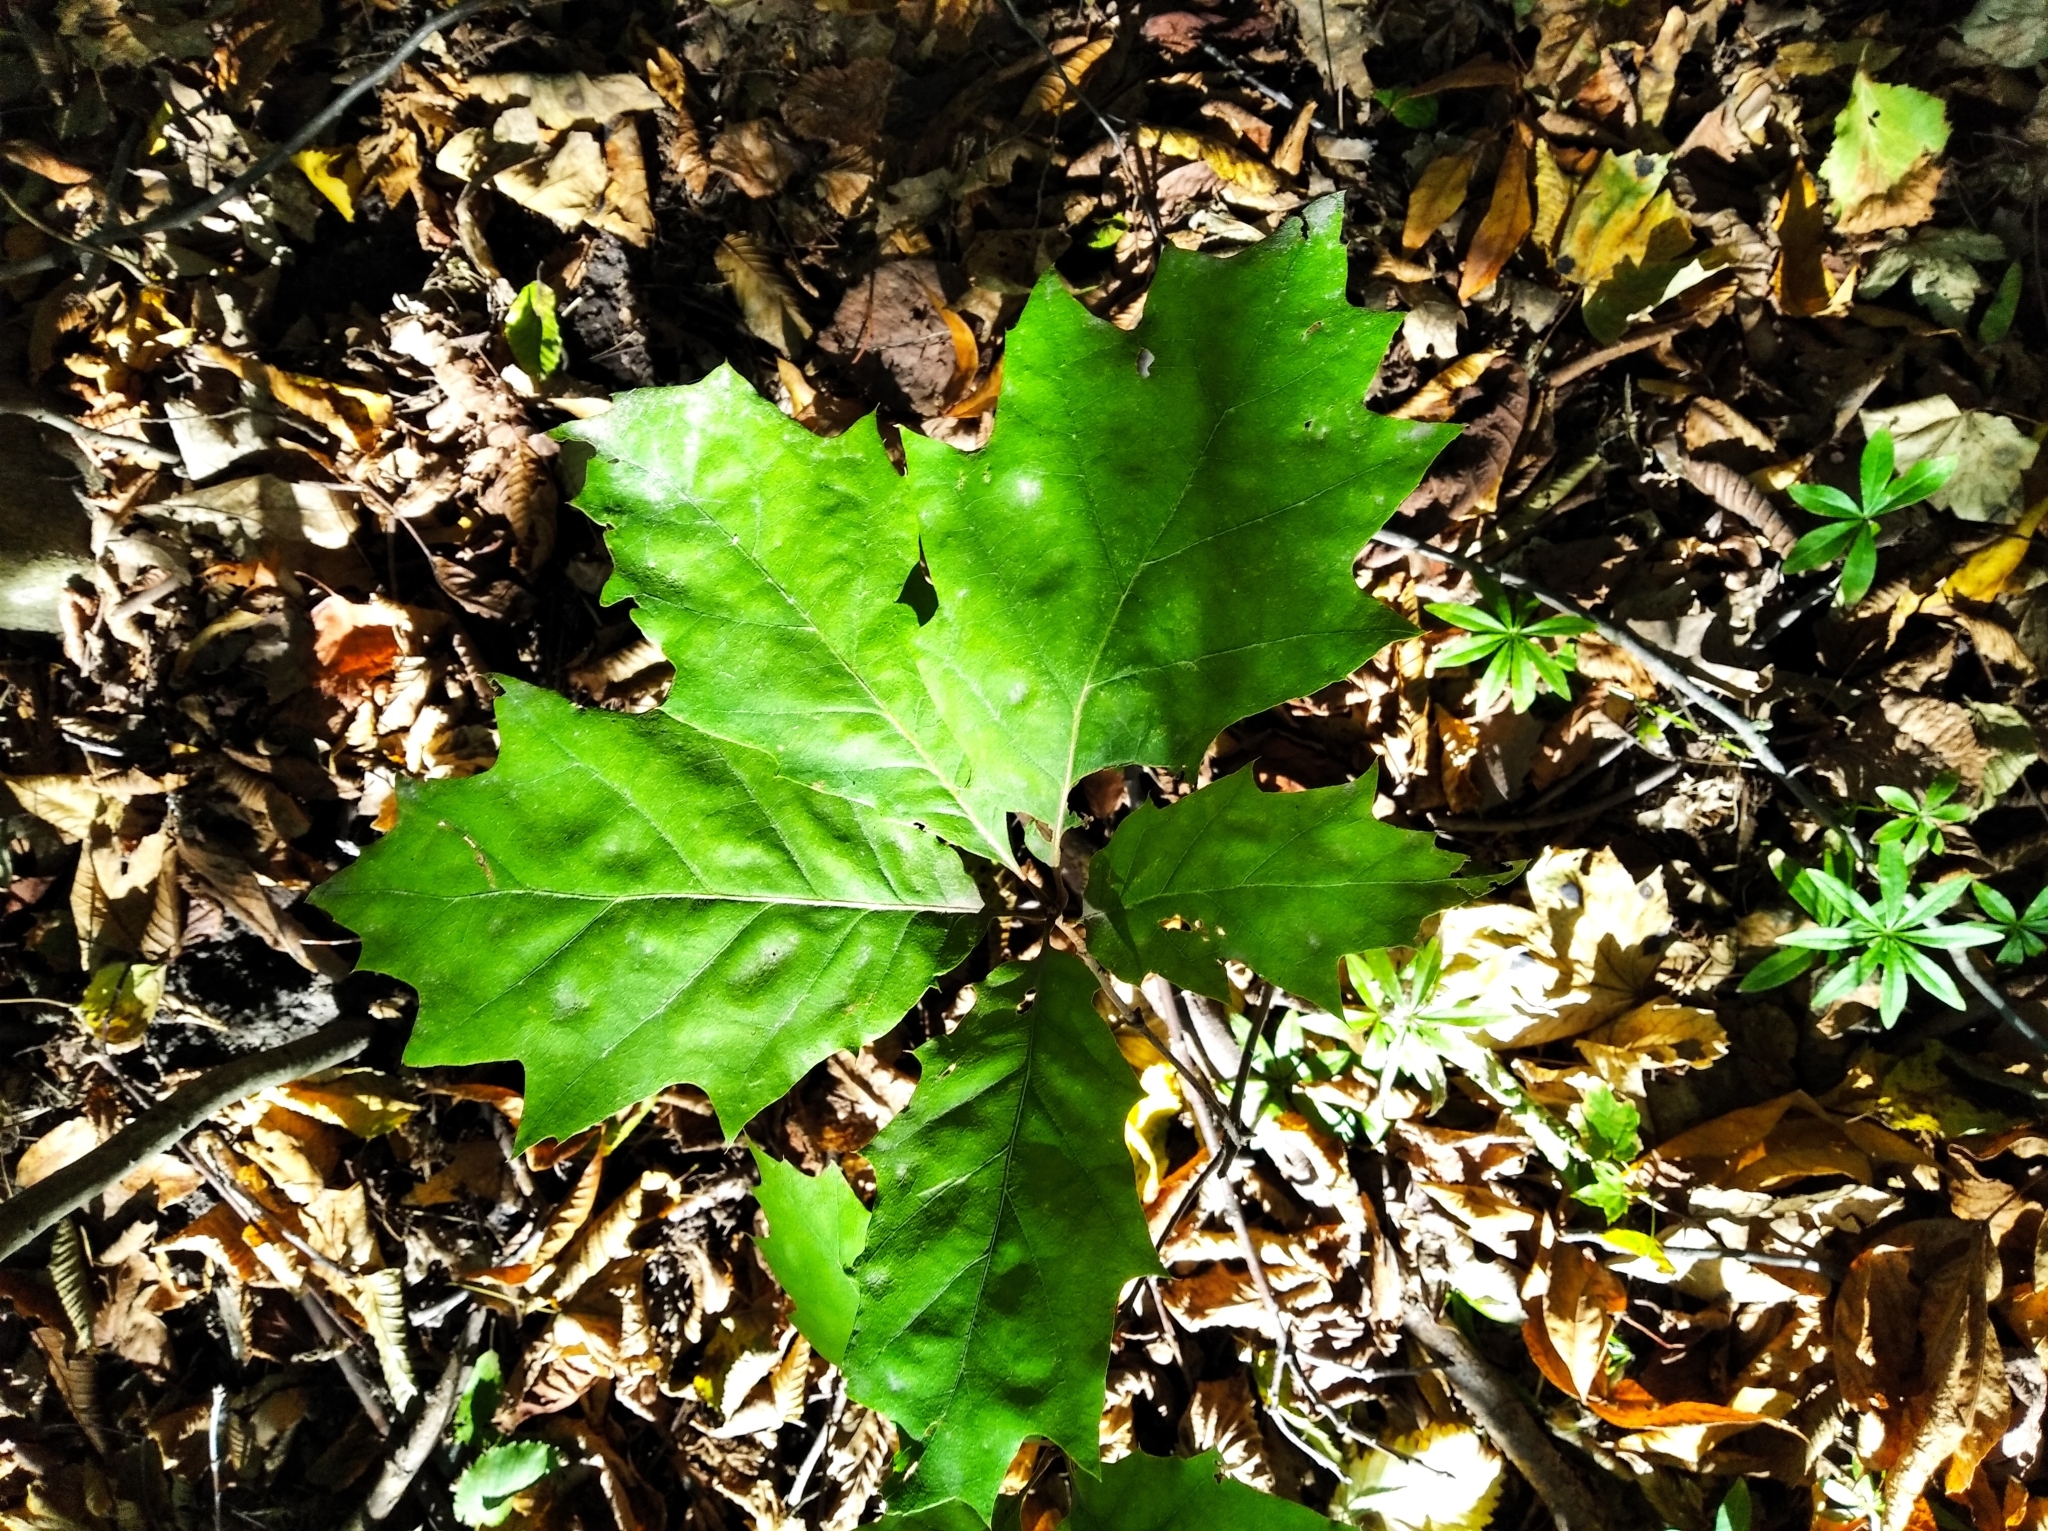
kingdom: Plantae
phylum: Tracheophyta
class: Magnoliopsida
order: Fagales
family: Fagaceae
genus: Quercus
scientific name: Quercus rubra
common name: Red oak
